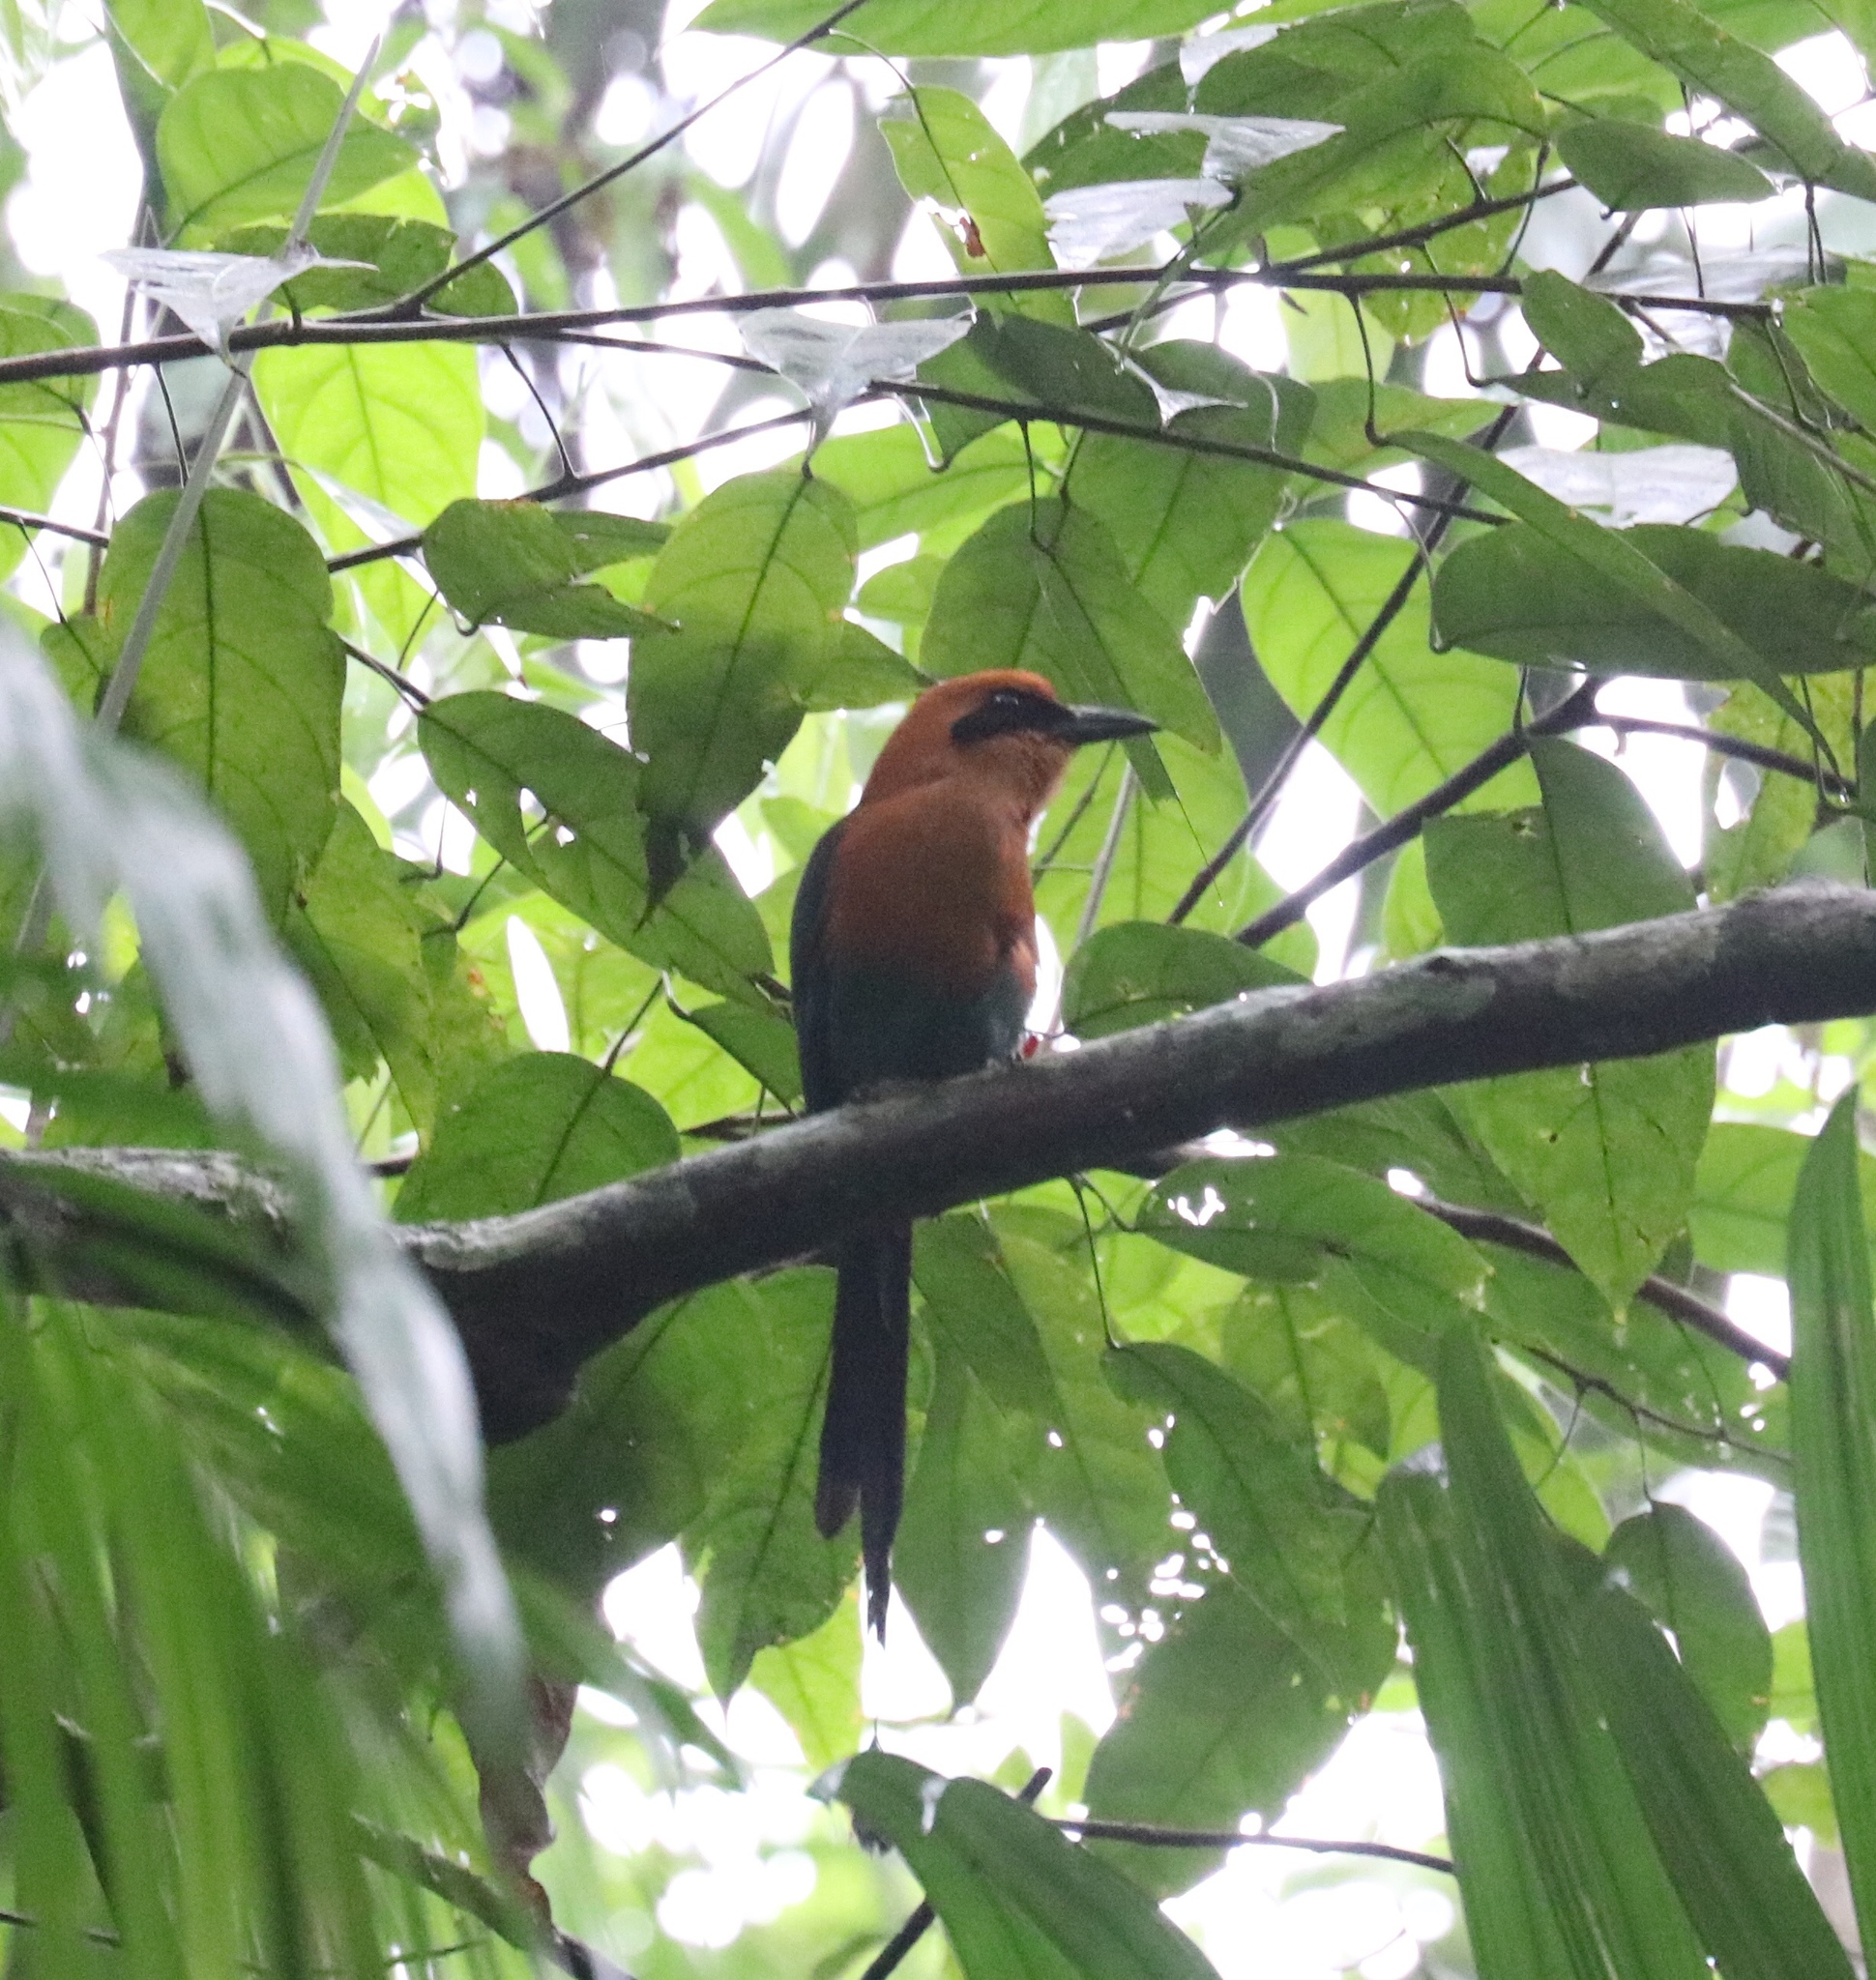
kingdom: Animalia
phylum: Chordata
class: Aves
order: Coraciiformes
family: Momotidae
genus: Baryphthengus
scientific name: Baryphthengus martii
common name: Rufous motmot
